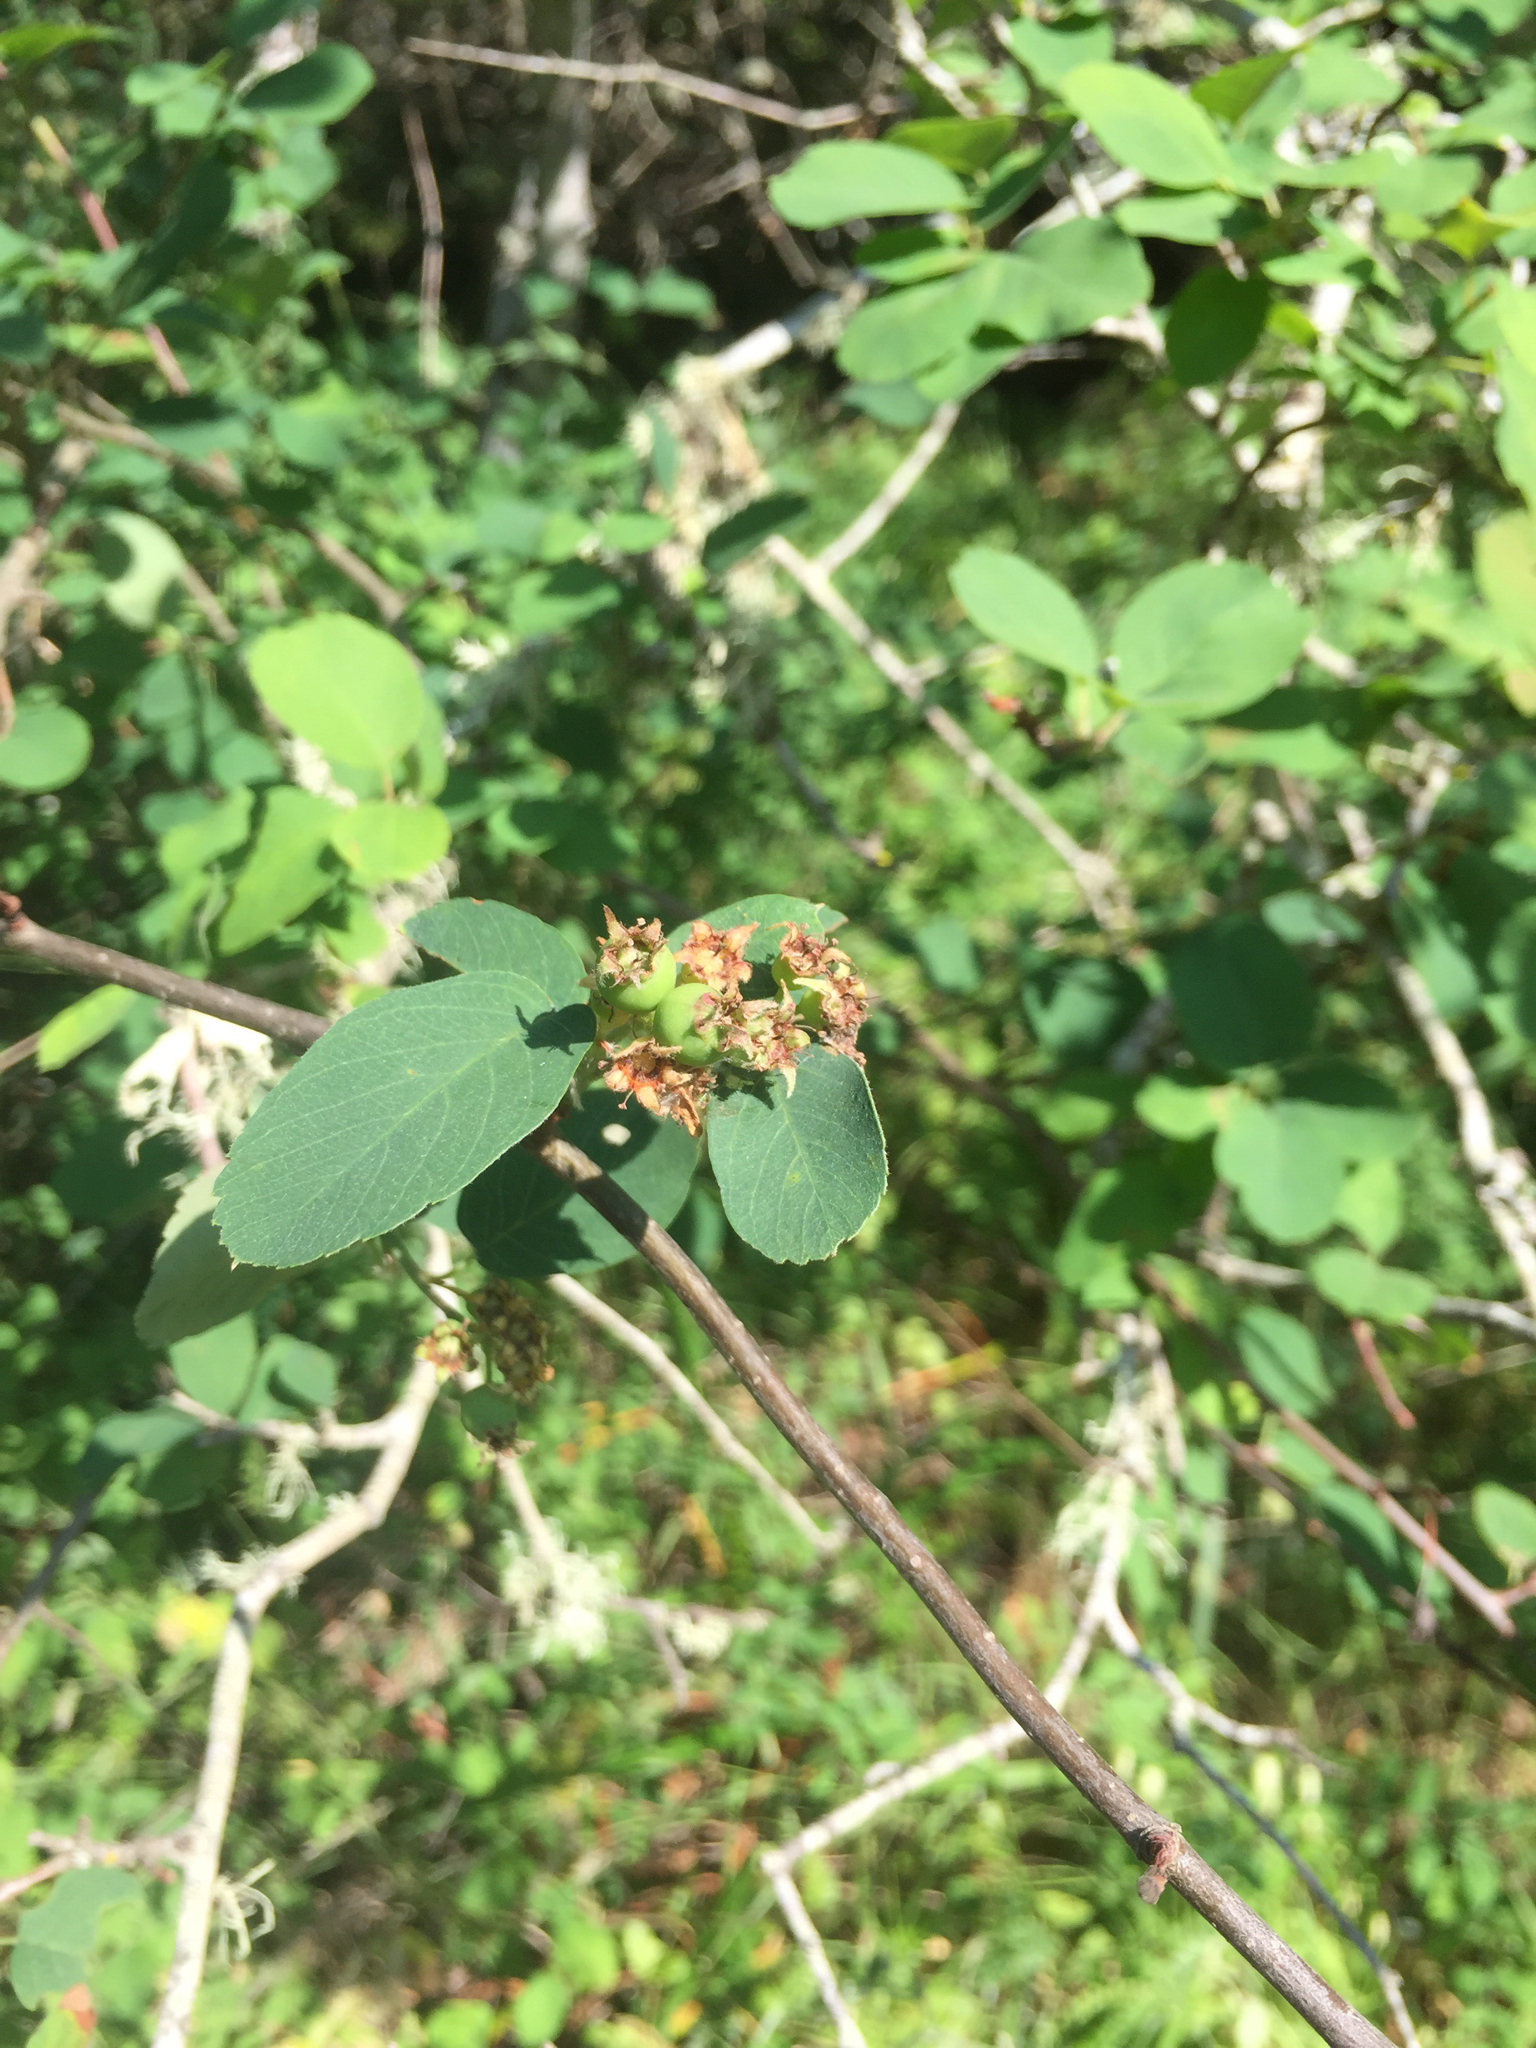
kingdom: Plantae
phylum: Tracheophyta
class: Magnoliopsida
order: Rosales
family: Rosaceae
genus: Amelanchier
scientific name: Amelanchier utahensis
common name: Utah serviceberry
